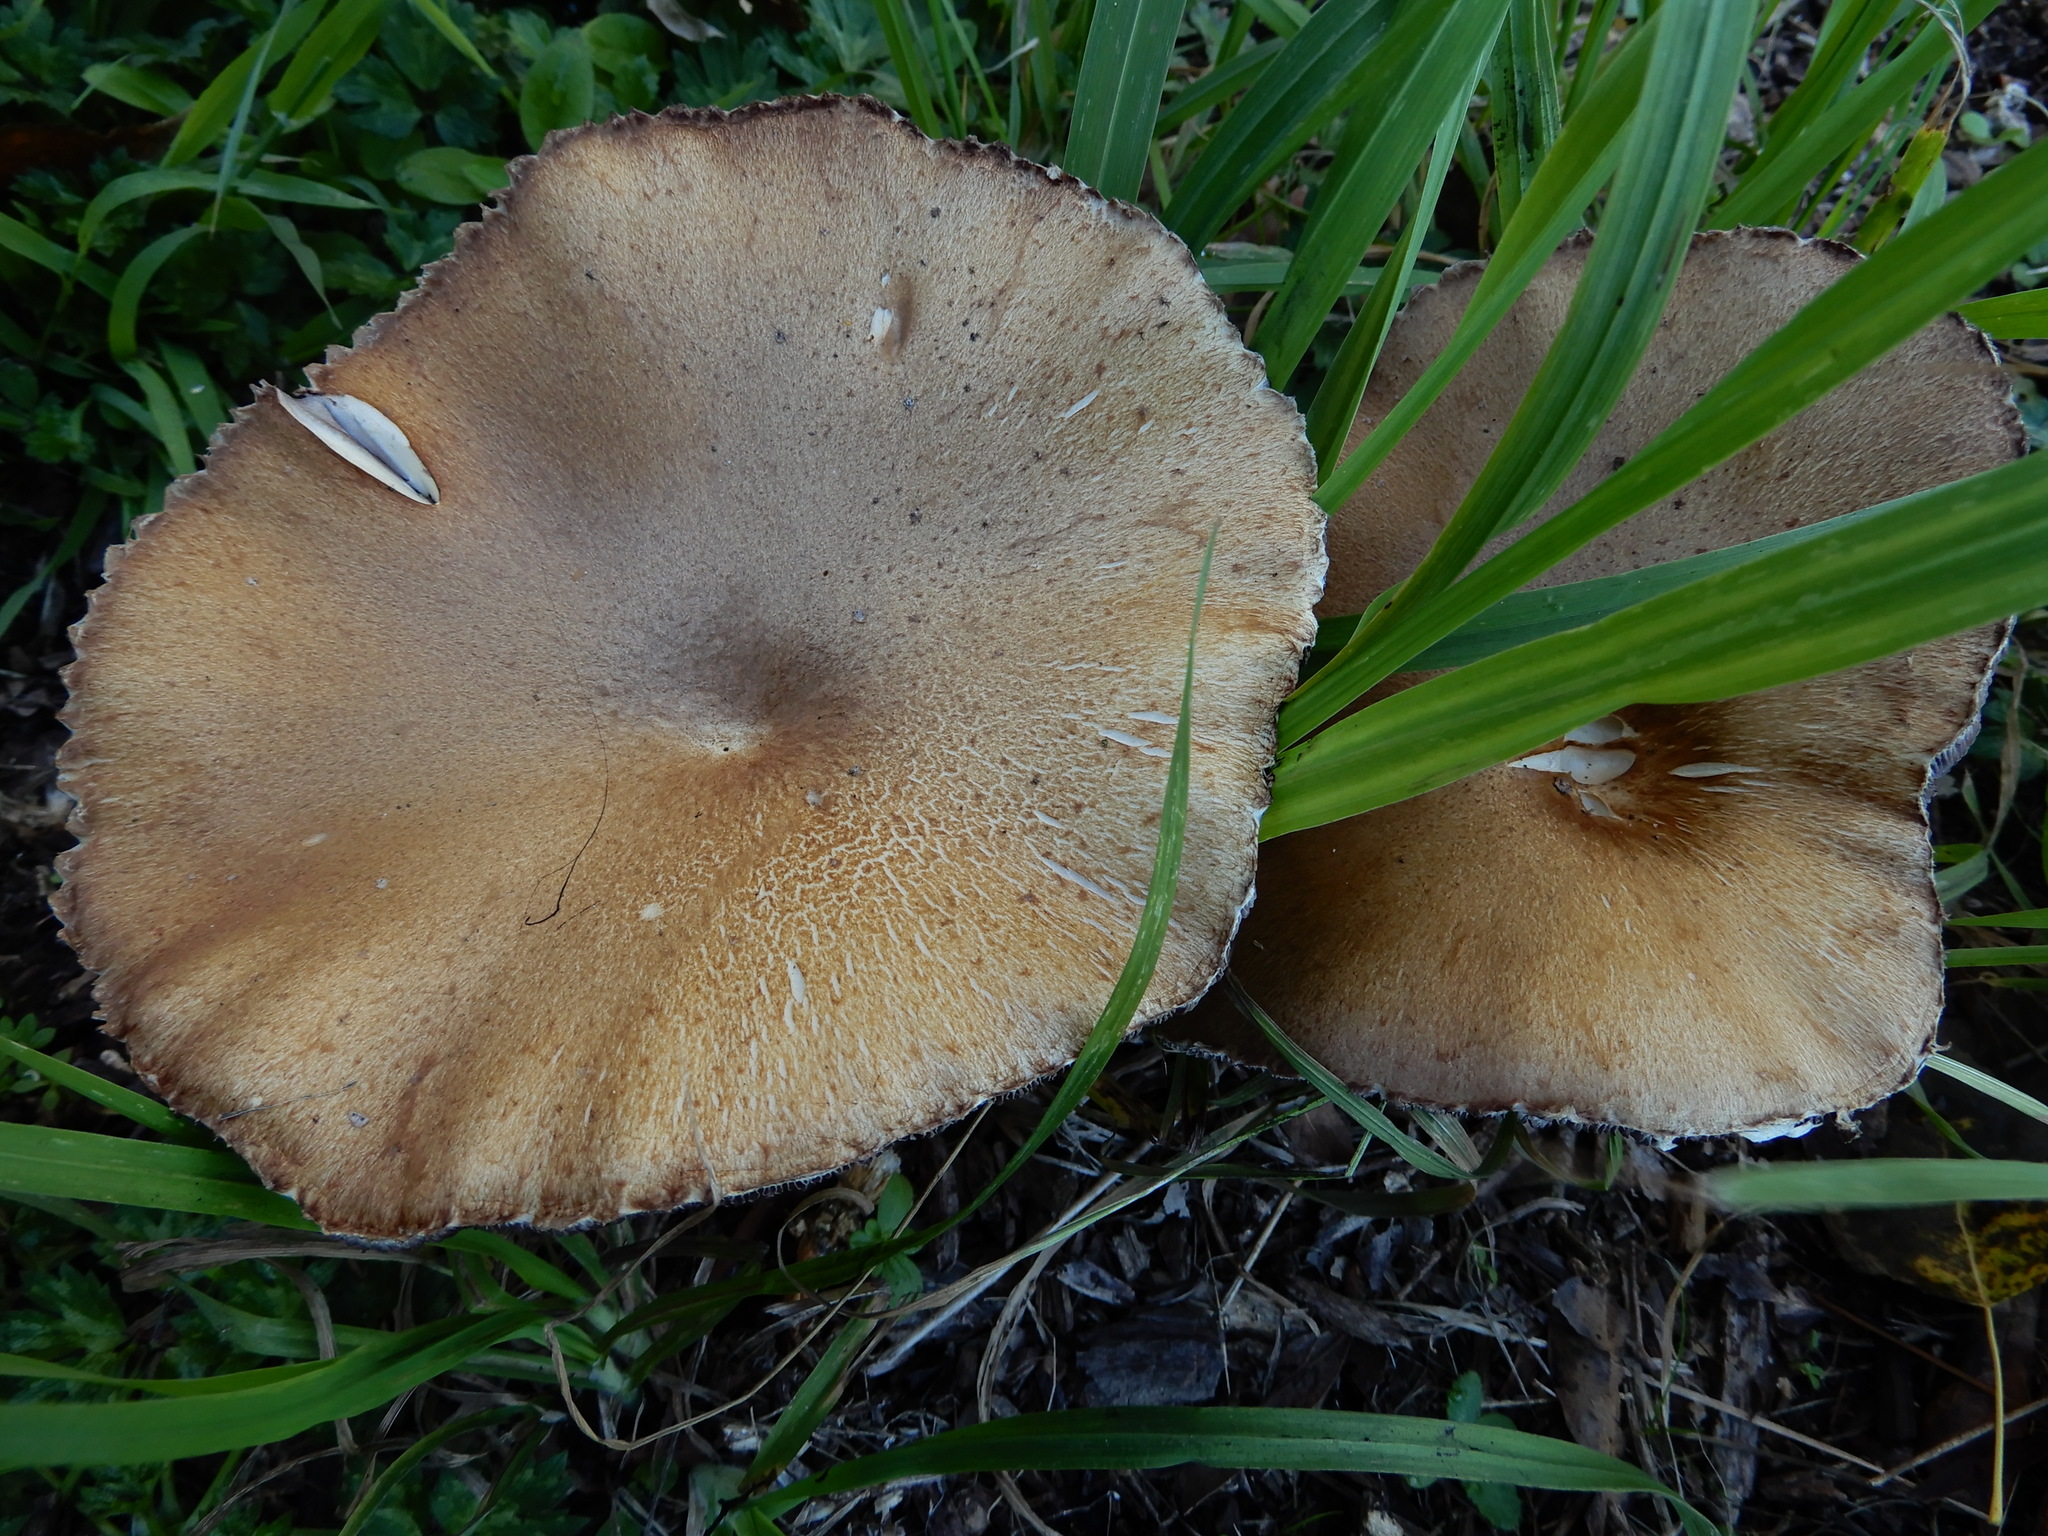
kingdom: Fungi
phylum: Basidiomycota
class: Agaricomycetes
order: Agaricales
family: Strophariaceae
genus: Stropharia
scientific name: Stropharia rugosoannulata
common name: Wine roundhead
